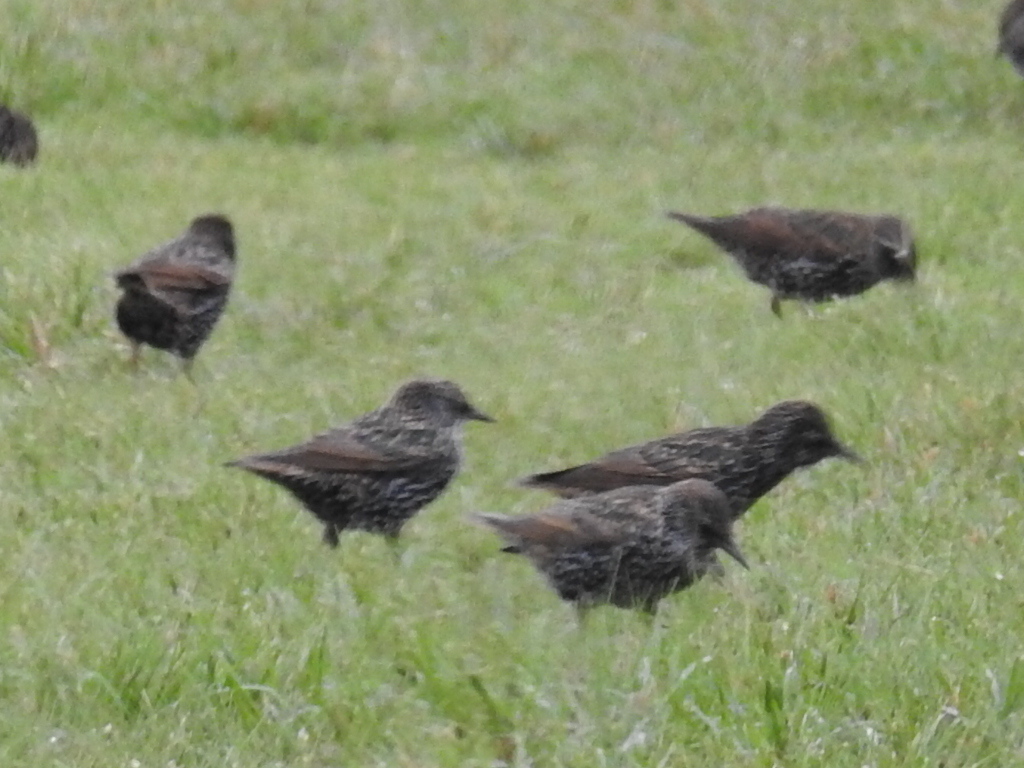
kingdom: Animalia
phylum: Chordata
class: Aves
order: Passeriformes
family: Sturnidae
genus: Sturnus
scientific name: Sturnus vulgaris
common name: Common starling
